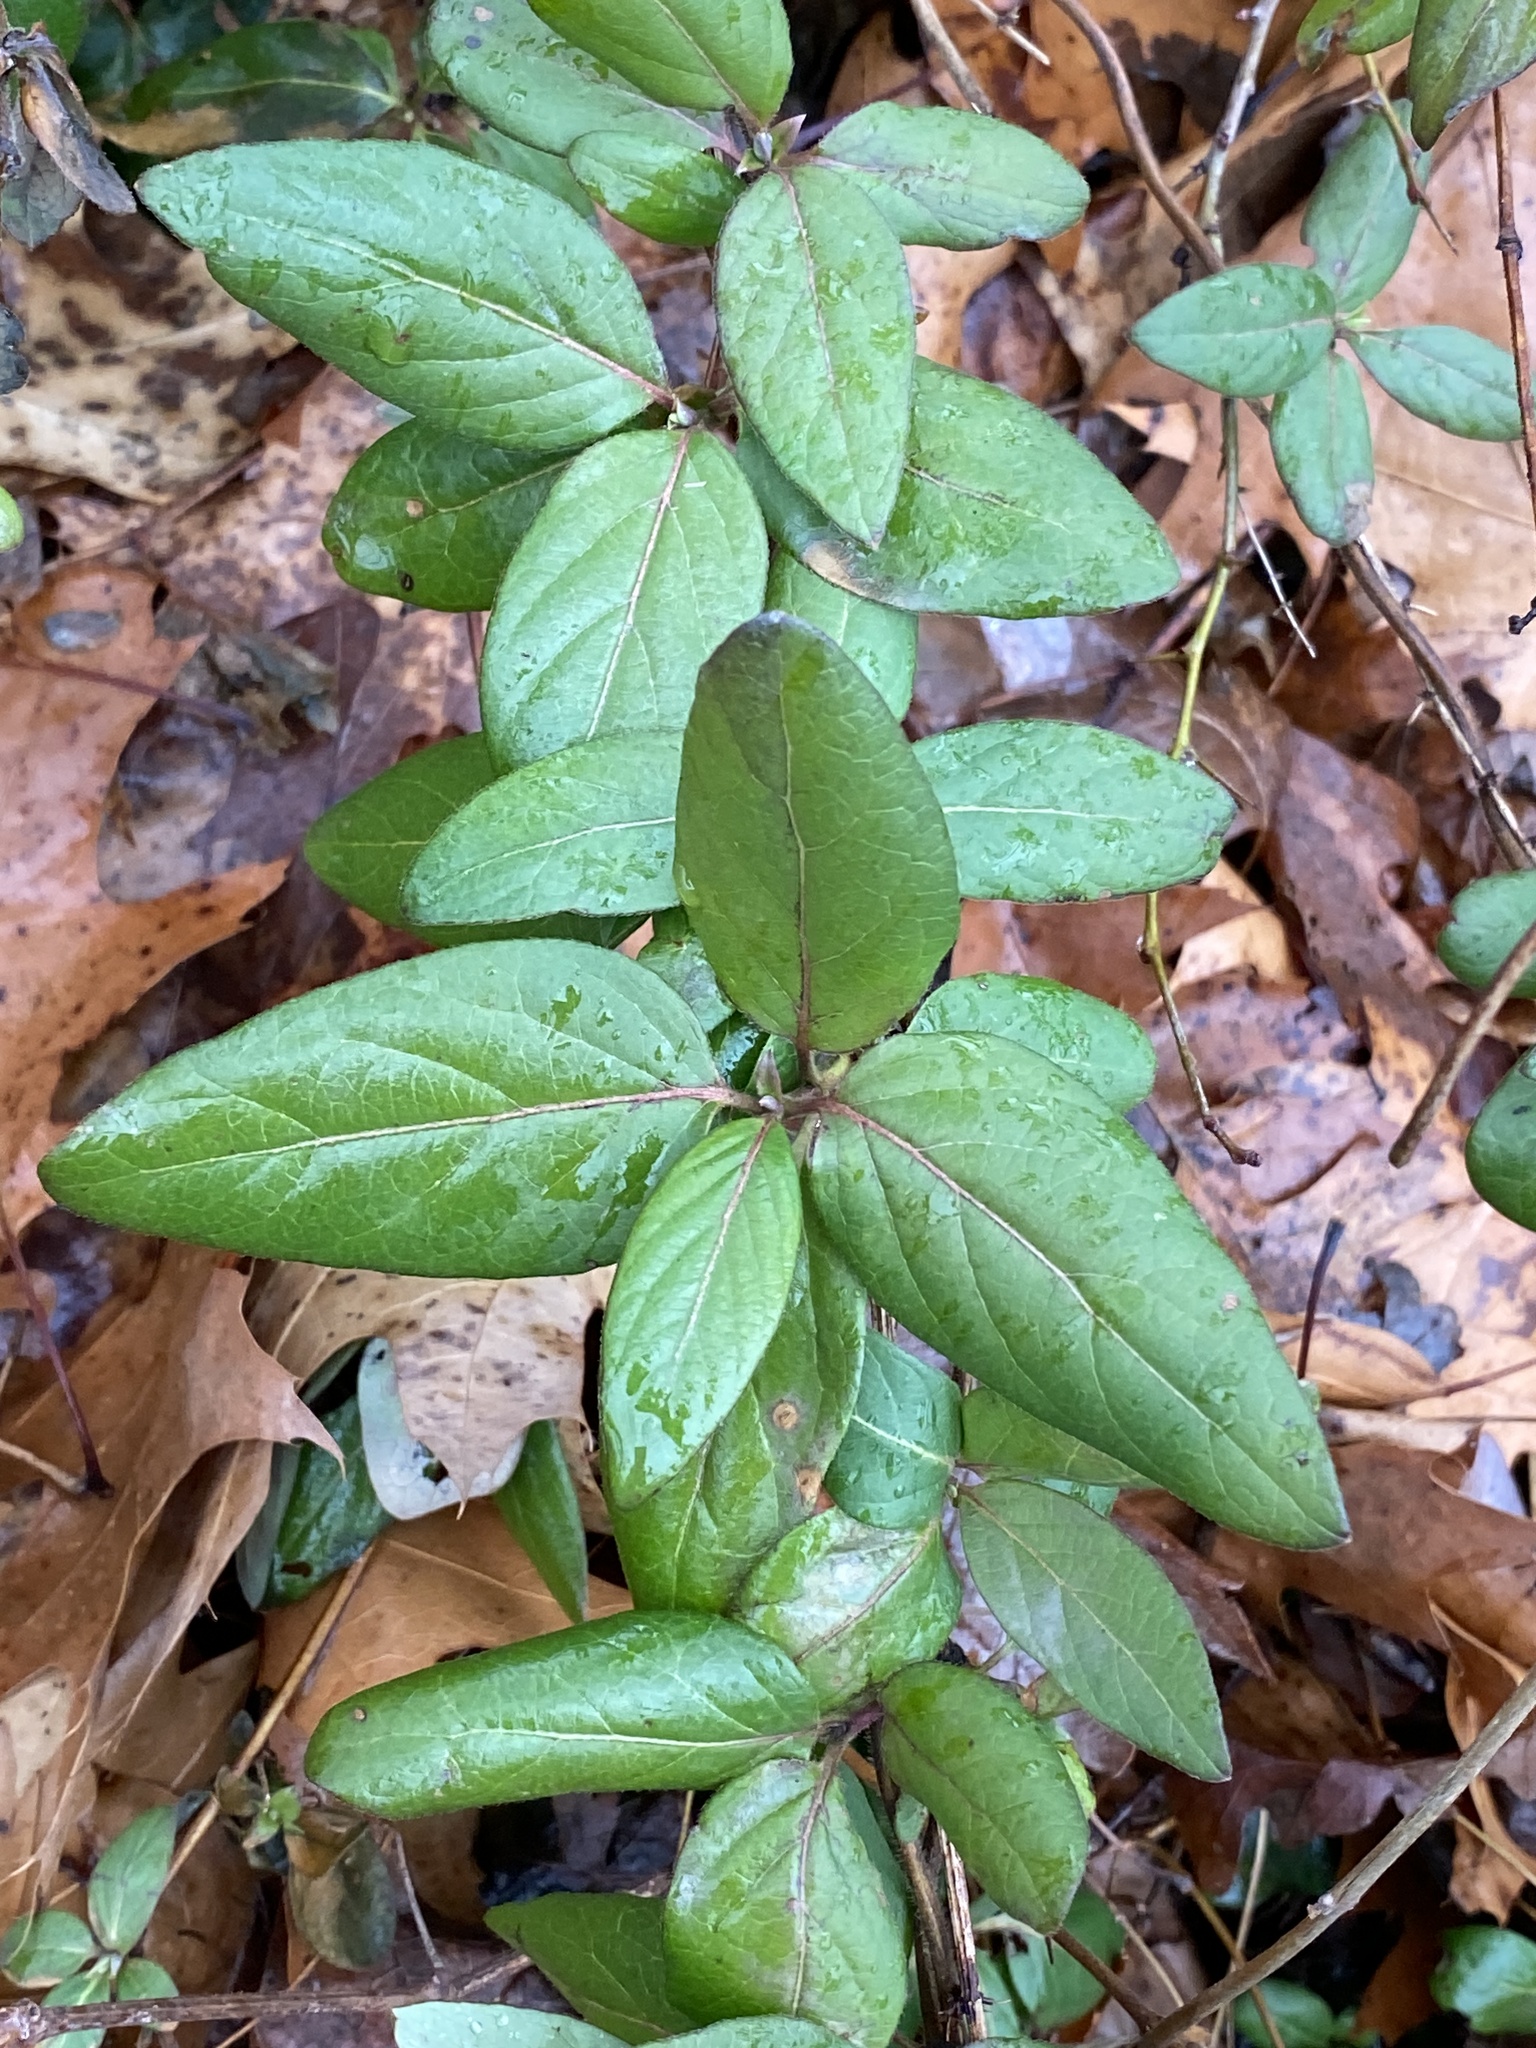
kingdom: Plantae
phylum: Tracheophyta
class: Magnoliopsida
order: Dipsacales
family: Caprifoliaceae
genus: Lonicera
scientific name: Lonicera japonica
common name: Japanese honeysuckle
